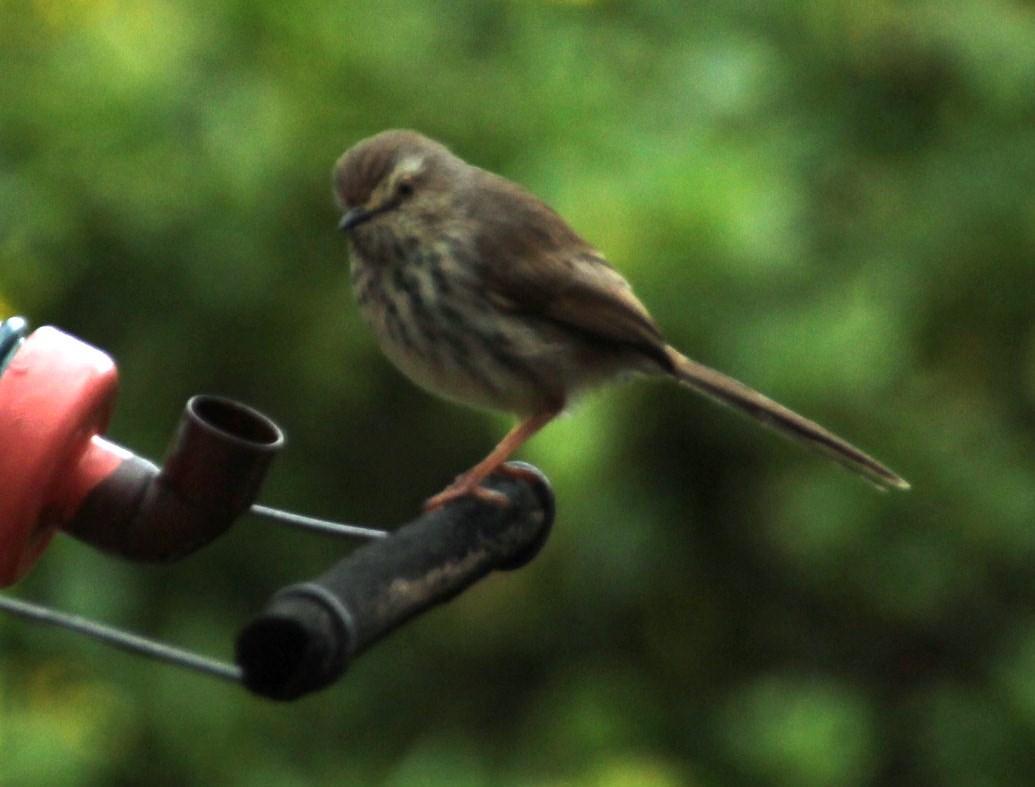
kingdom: Animalia
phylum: Chordata
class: Aves
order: Passeriformes
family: Cisticolidae
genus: Prinia
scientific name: Prinia maculosa
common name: Karoo prinia
